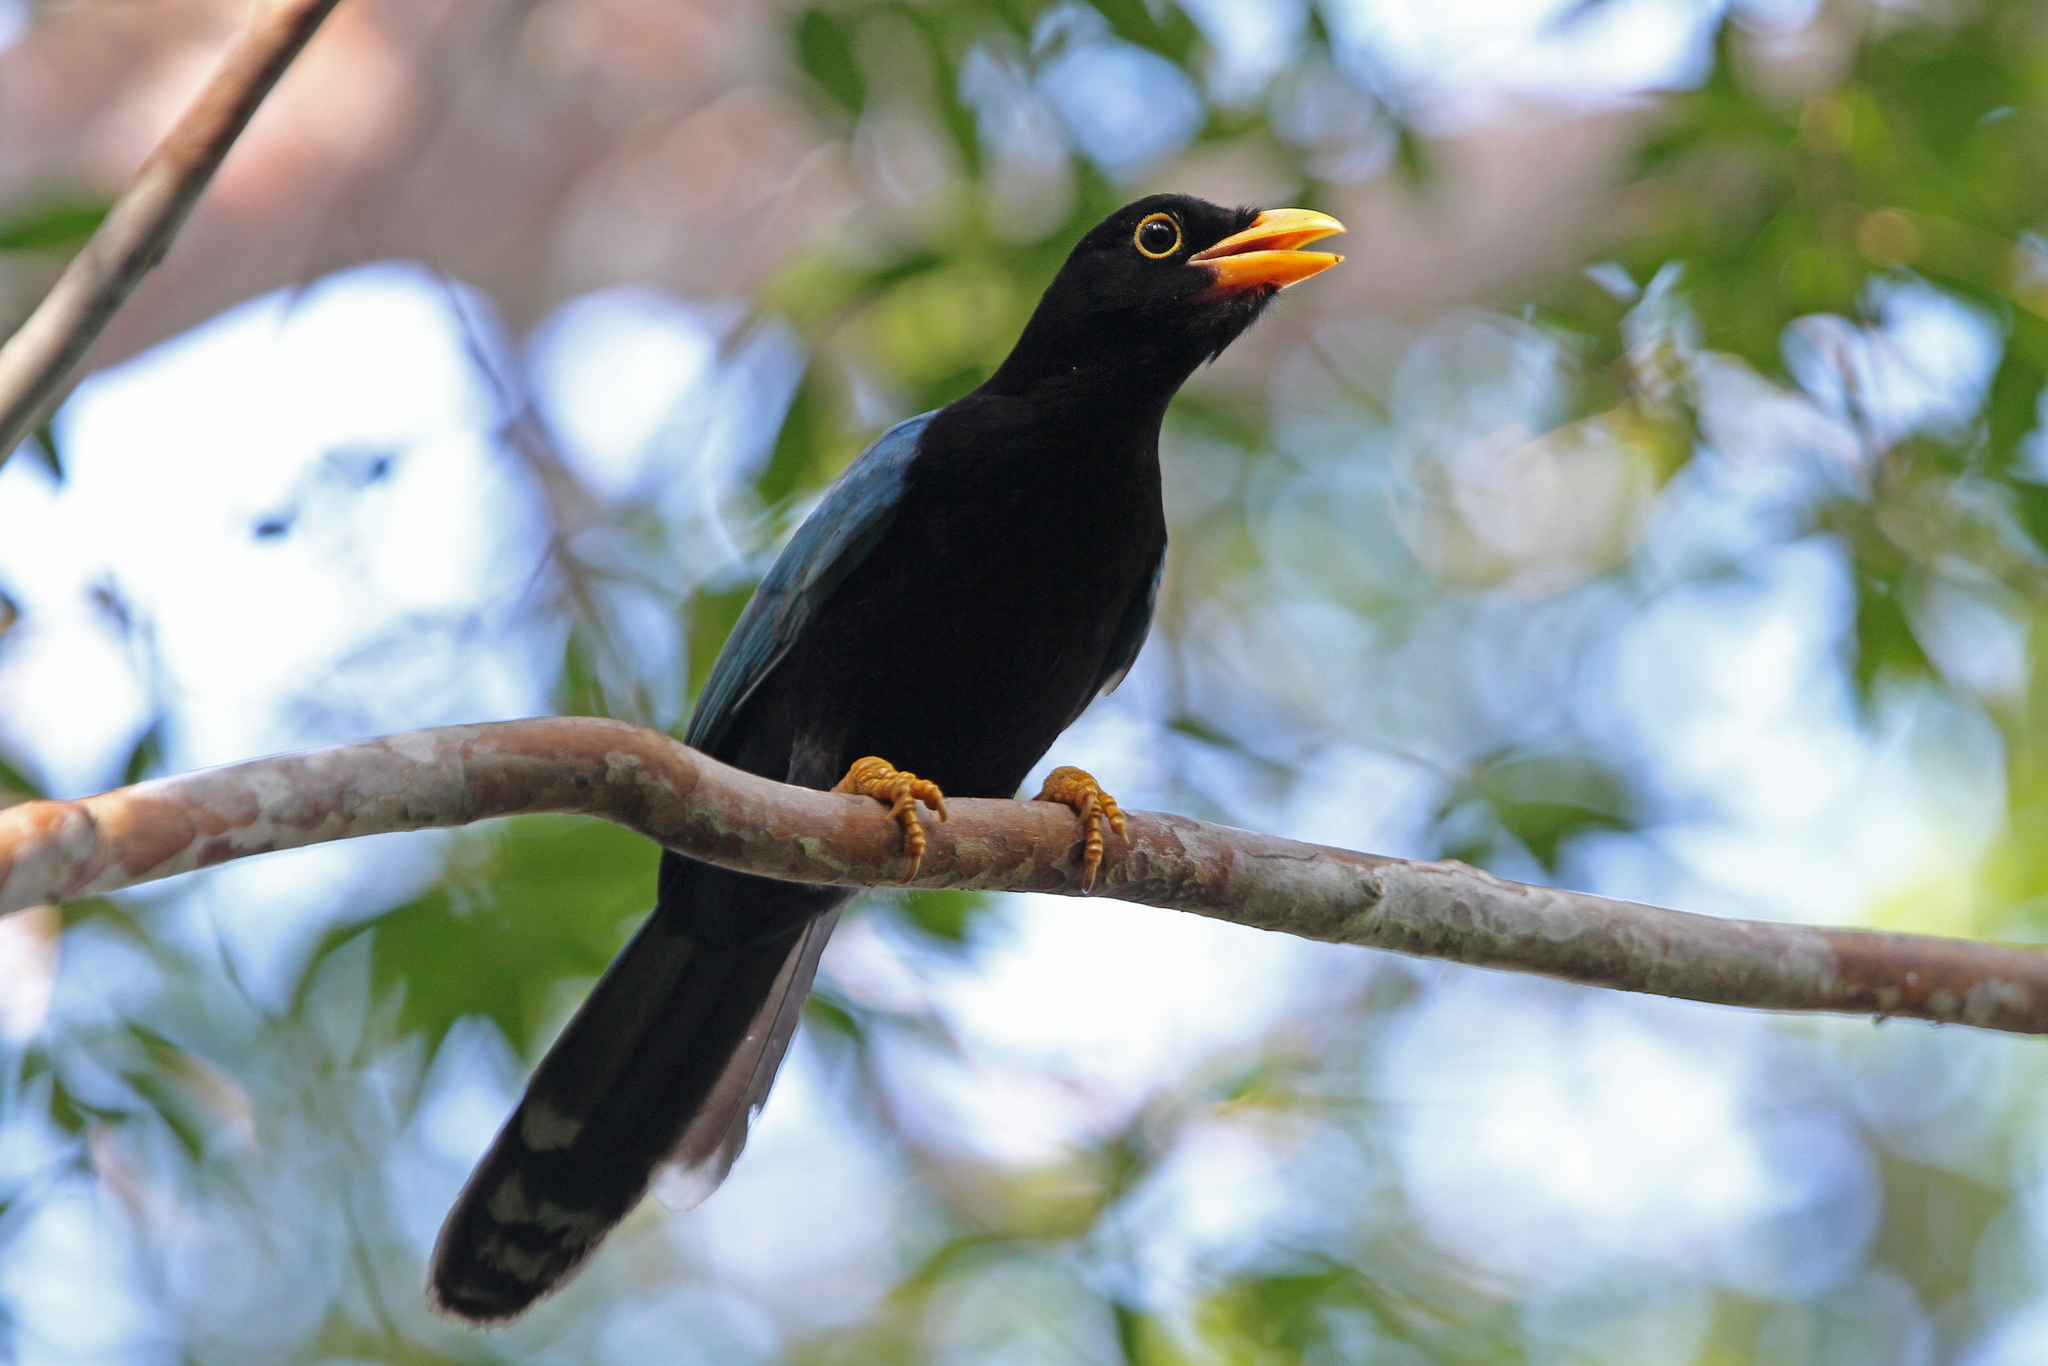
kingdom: Animalia
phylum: Chordata
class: Aves
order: Passeriformes
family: Corvidae
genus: Cyanocorax
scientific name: Cyanocorax yucatanicus
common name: Yucatan jay
